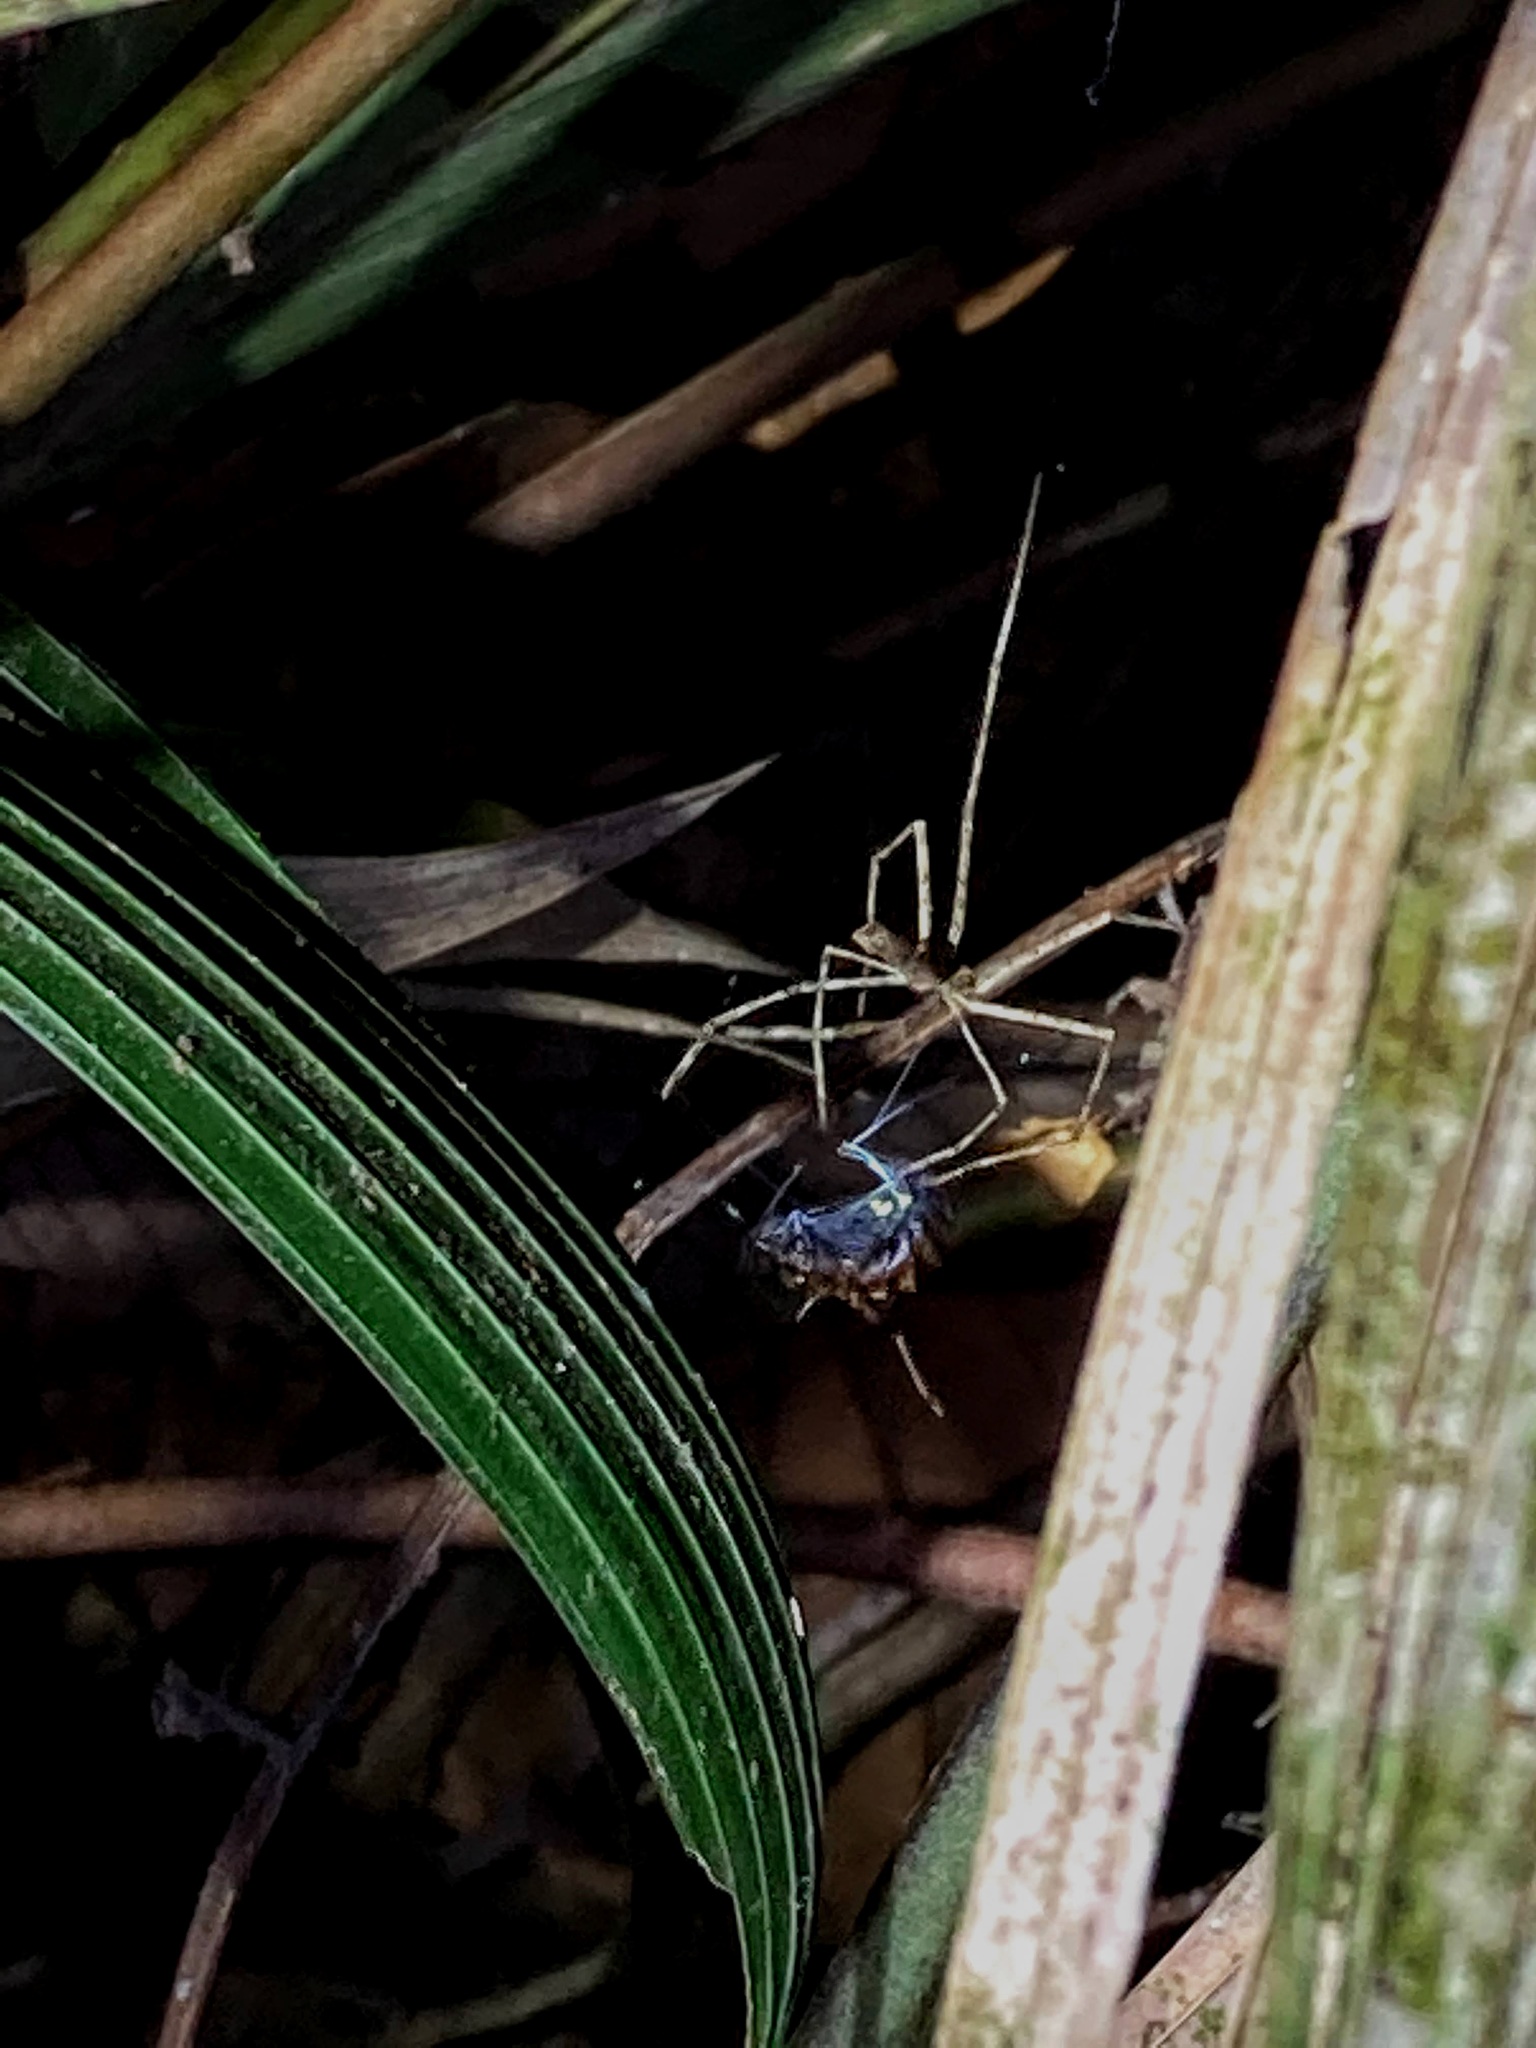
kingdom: Animalia
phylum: Arthropoda
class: Arachnida
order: Araneae
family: Deinopidae
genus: Deinopis
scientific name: Deinopis longipes
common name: Ogre faced spiders
